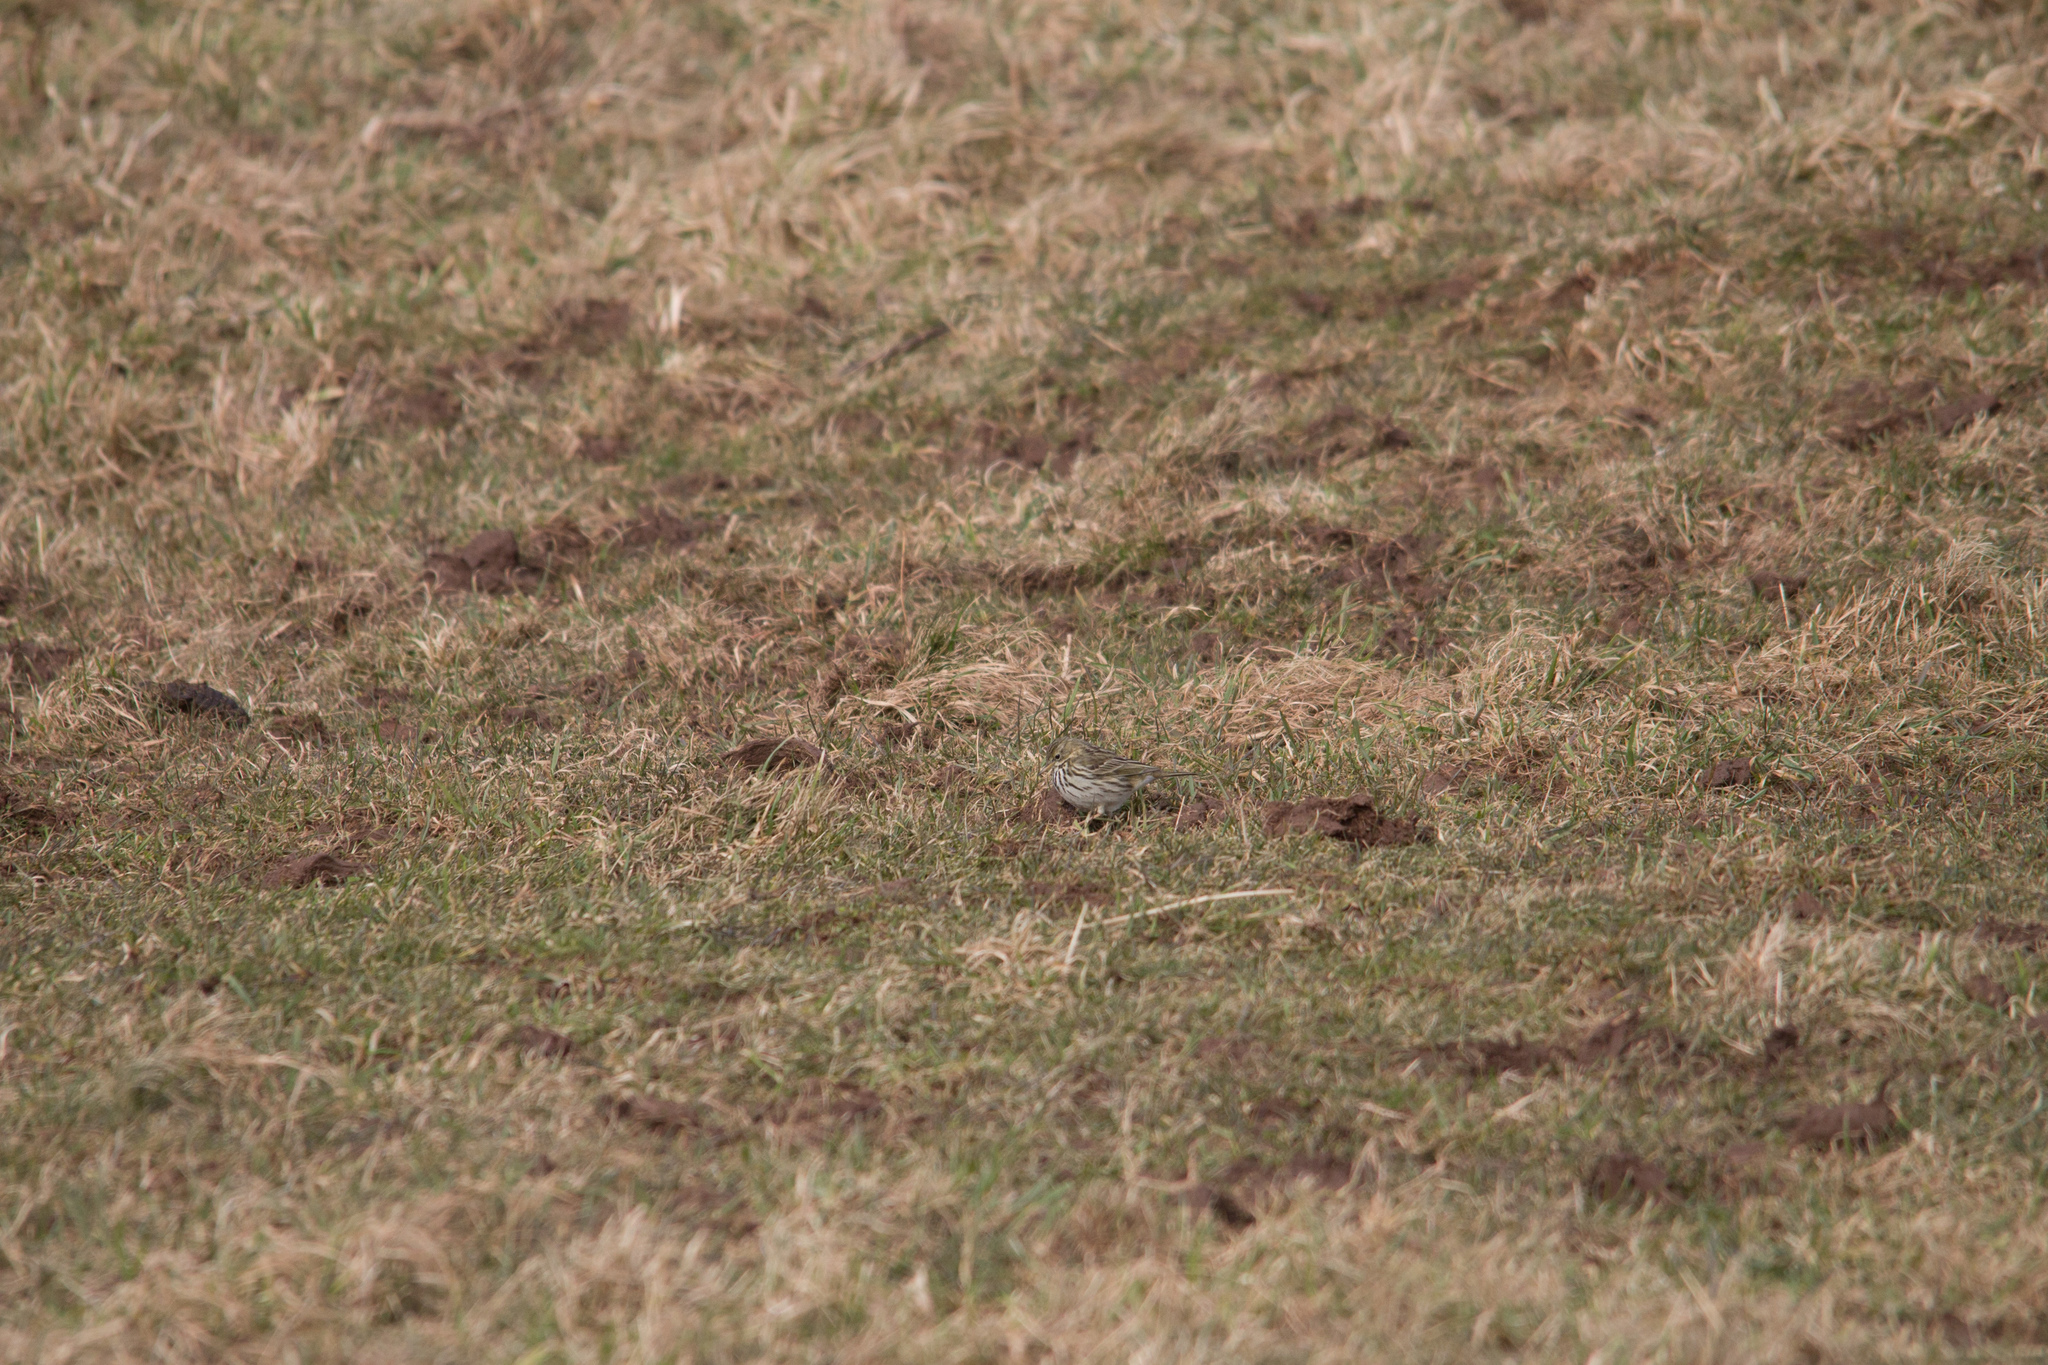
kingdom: Animalia
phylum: Chordata
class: Aves
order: Passeriformes
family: Motacillidae
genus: Anthus
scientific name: Anthus pratensis
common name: Meadow pipit
